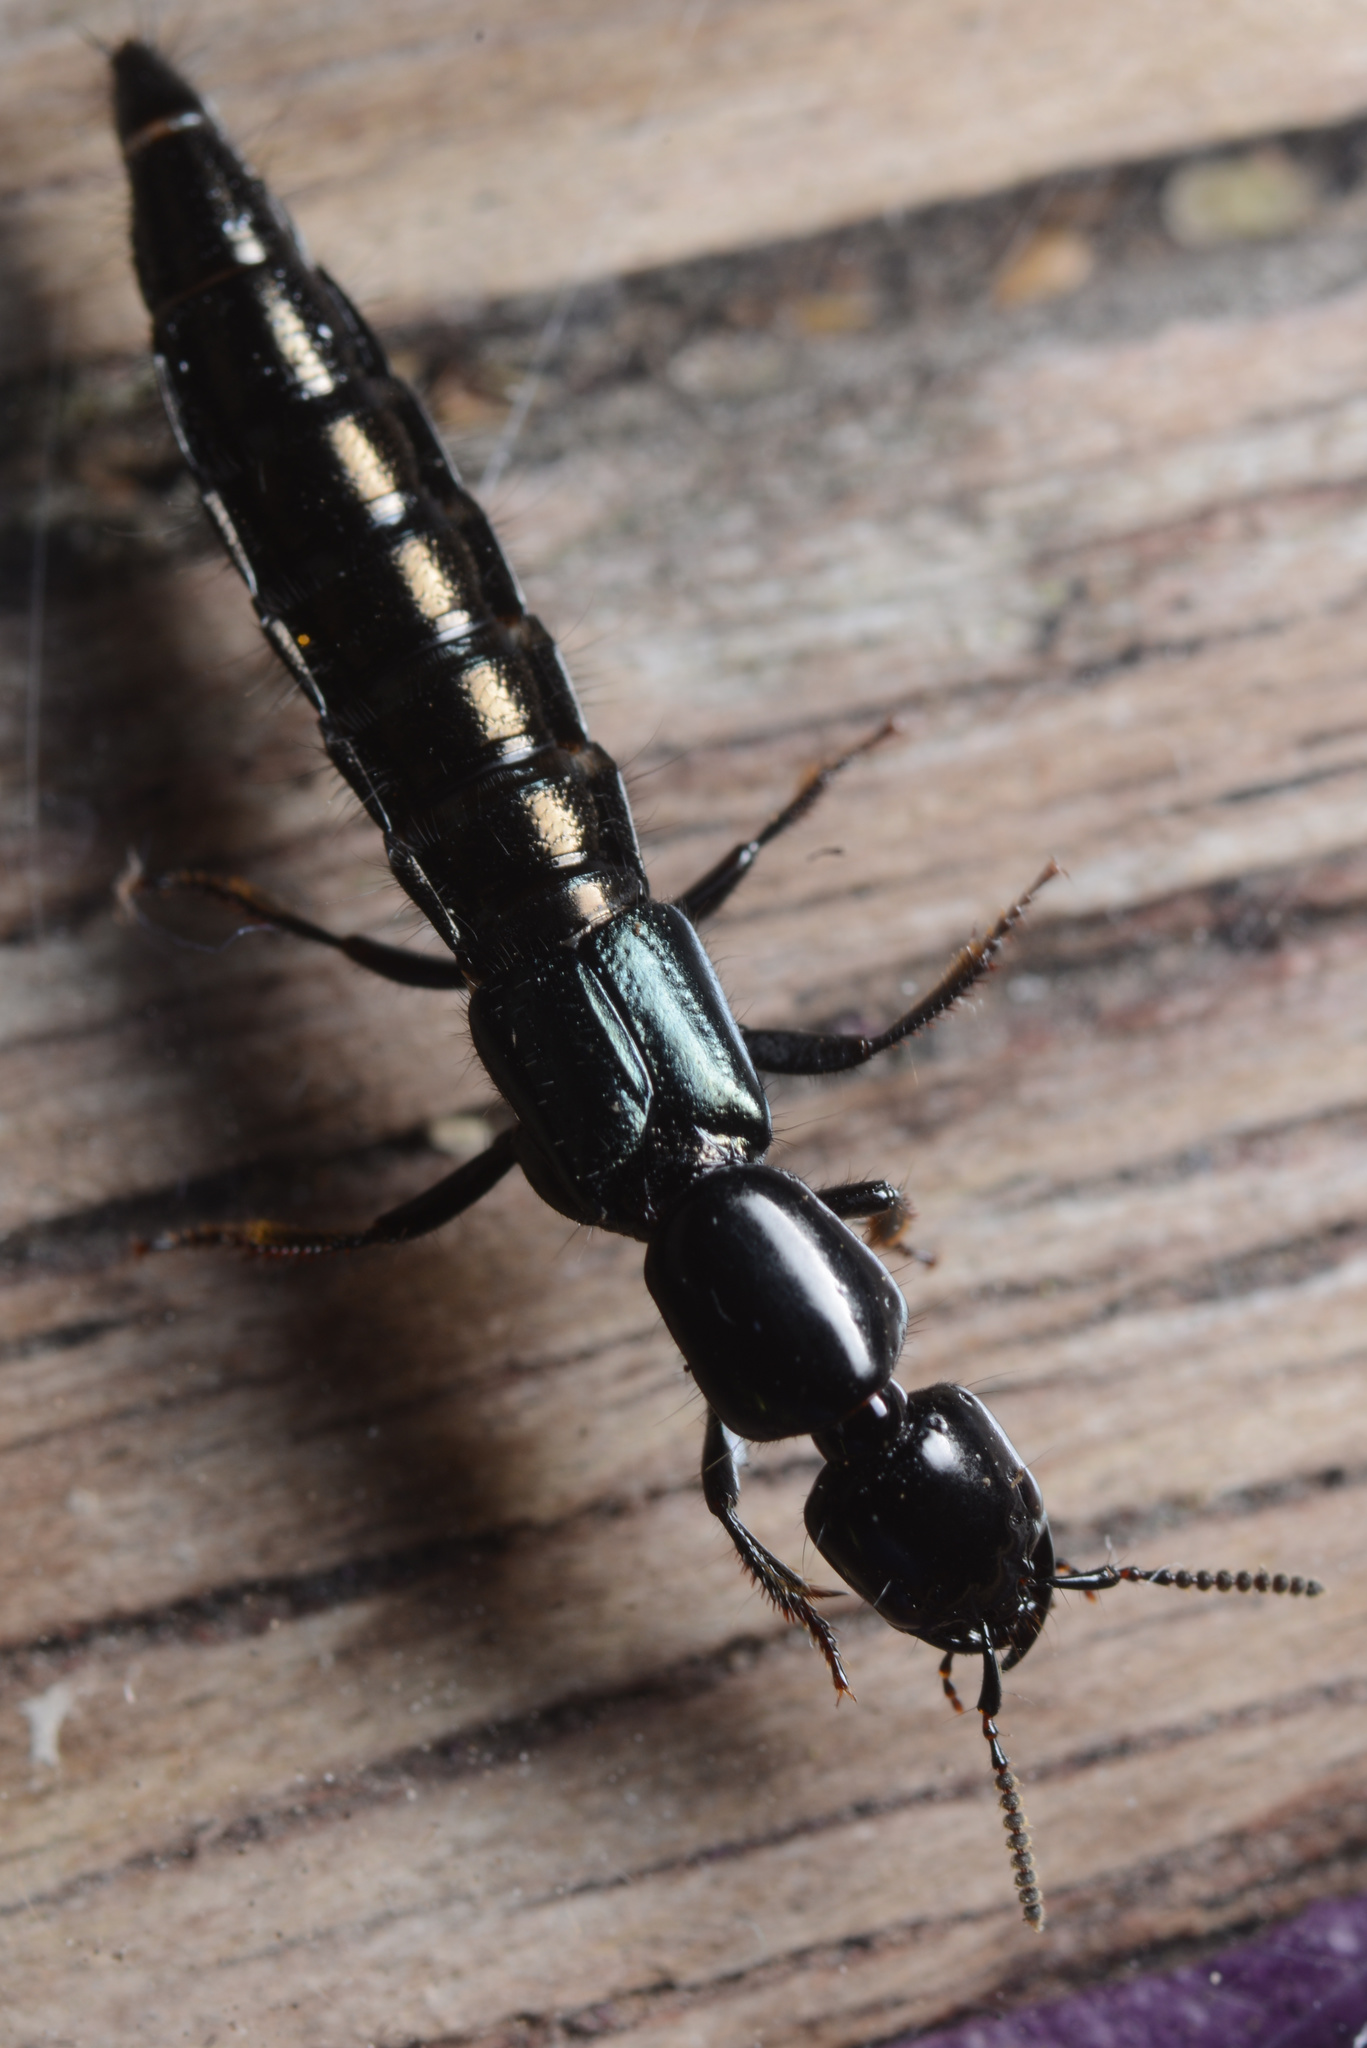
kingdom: Animalia
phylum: Arthropoda
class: Insecta
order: Coleoptera
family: Staphylinidae
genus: Thyreocephalus
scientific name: Thyreocephalus orthodoxus
